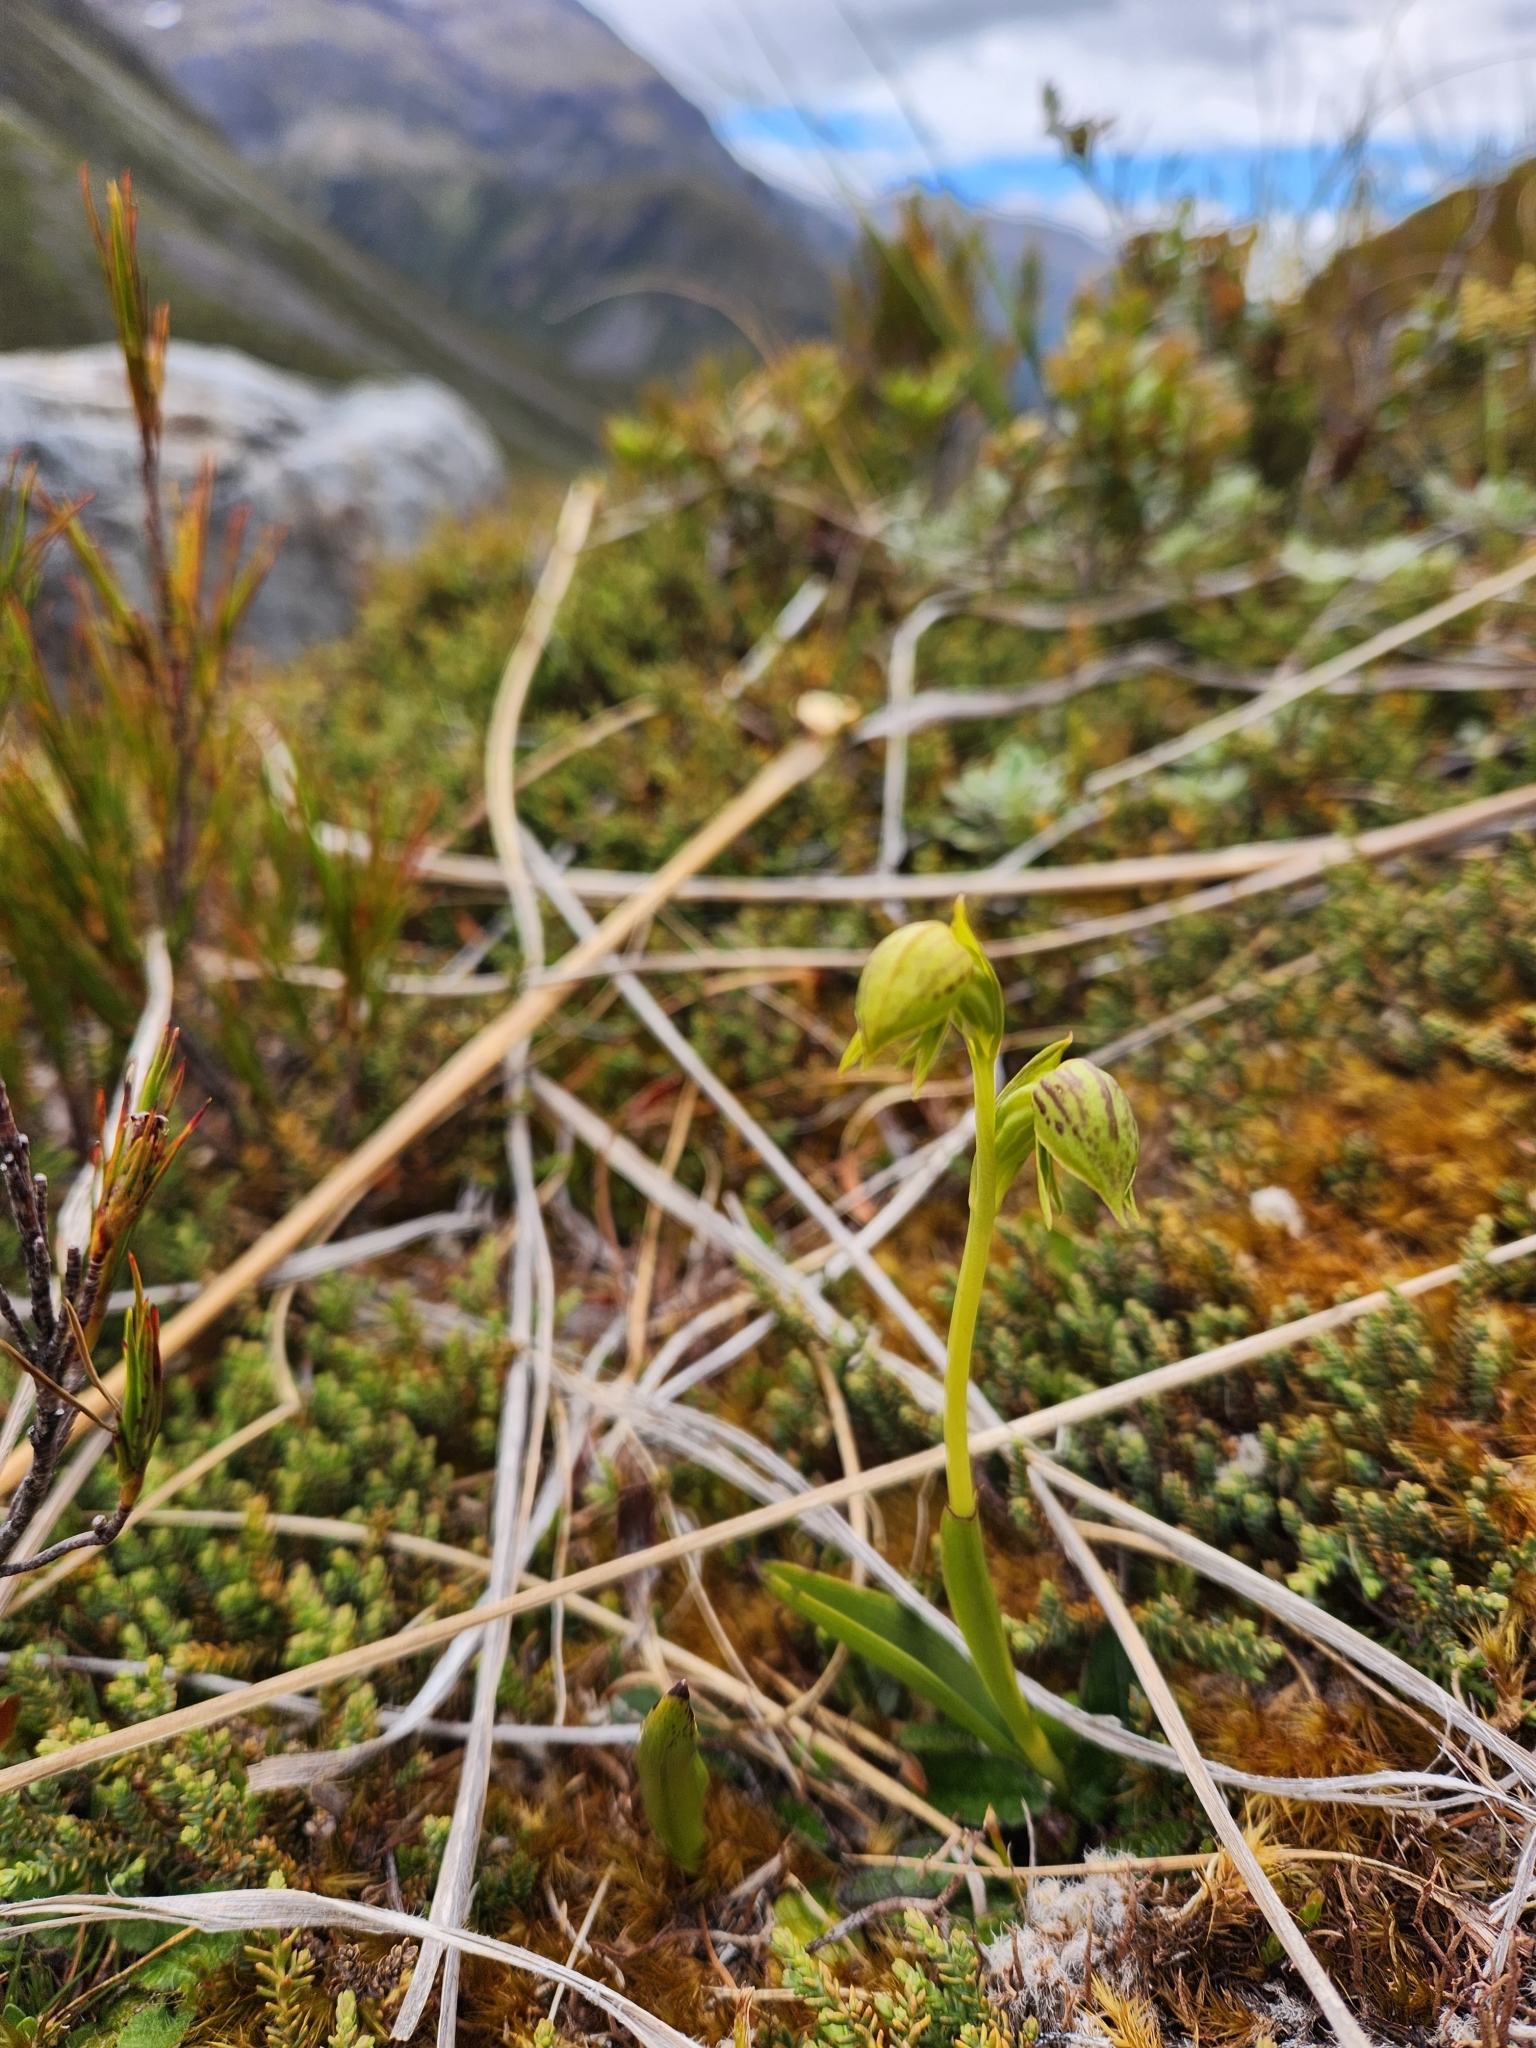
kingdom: Plantae
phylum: Tracheophyta
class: Liliopsida
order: Asparagales
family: Orchidaceae
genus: Waireia
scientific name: Waireia stenopetala
